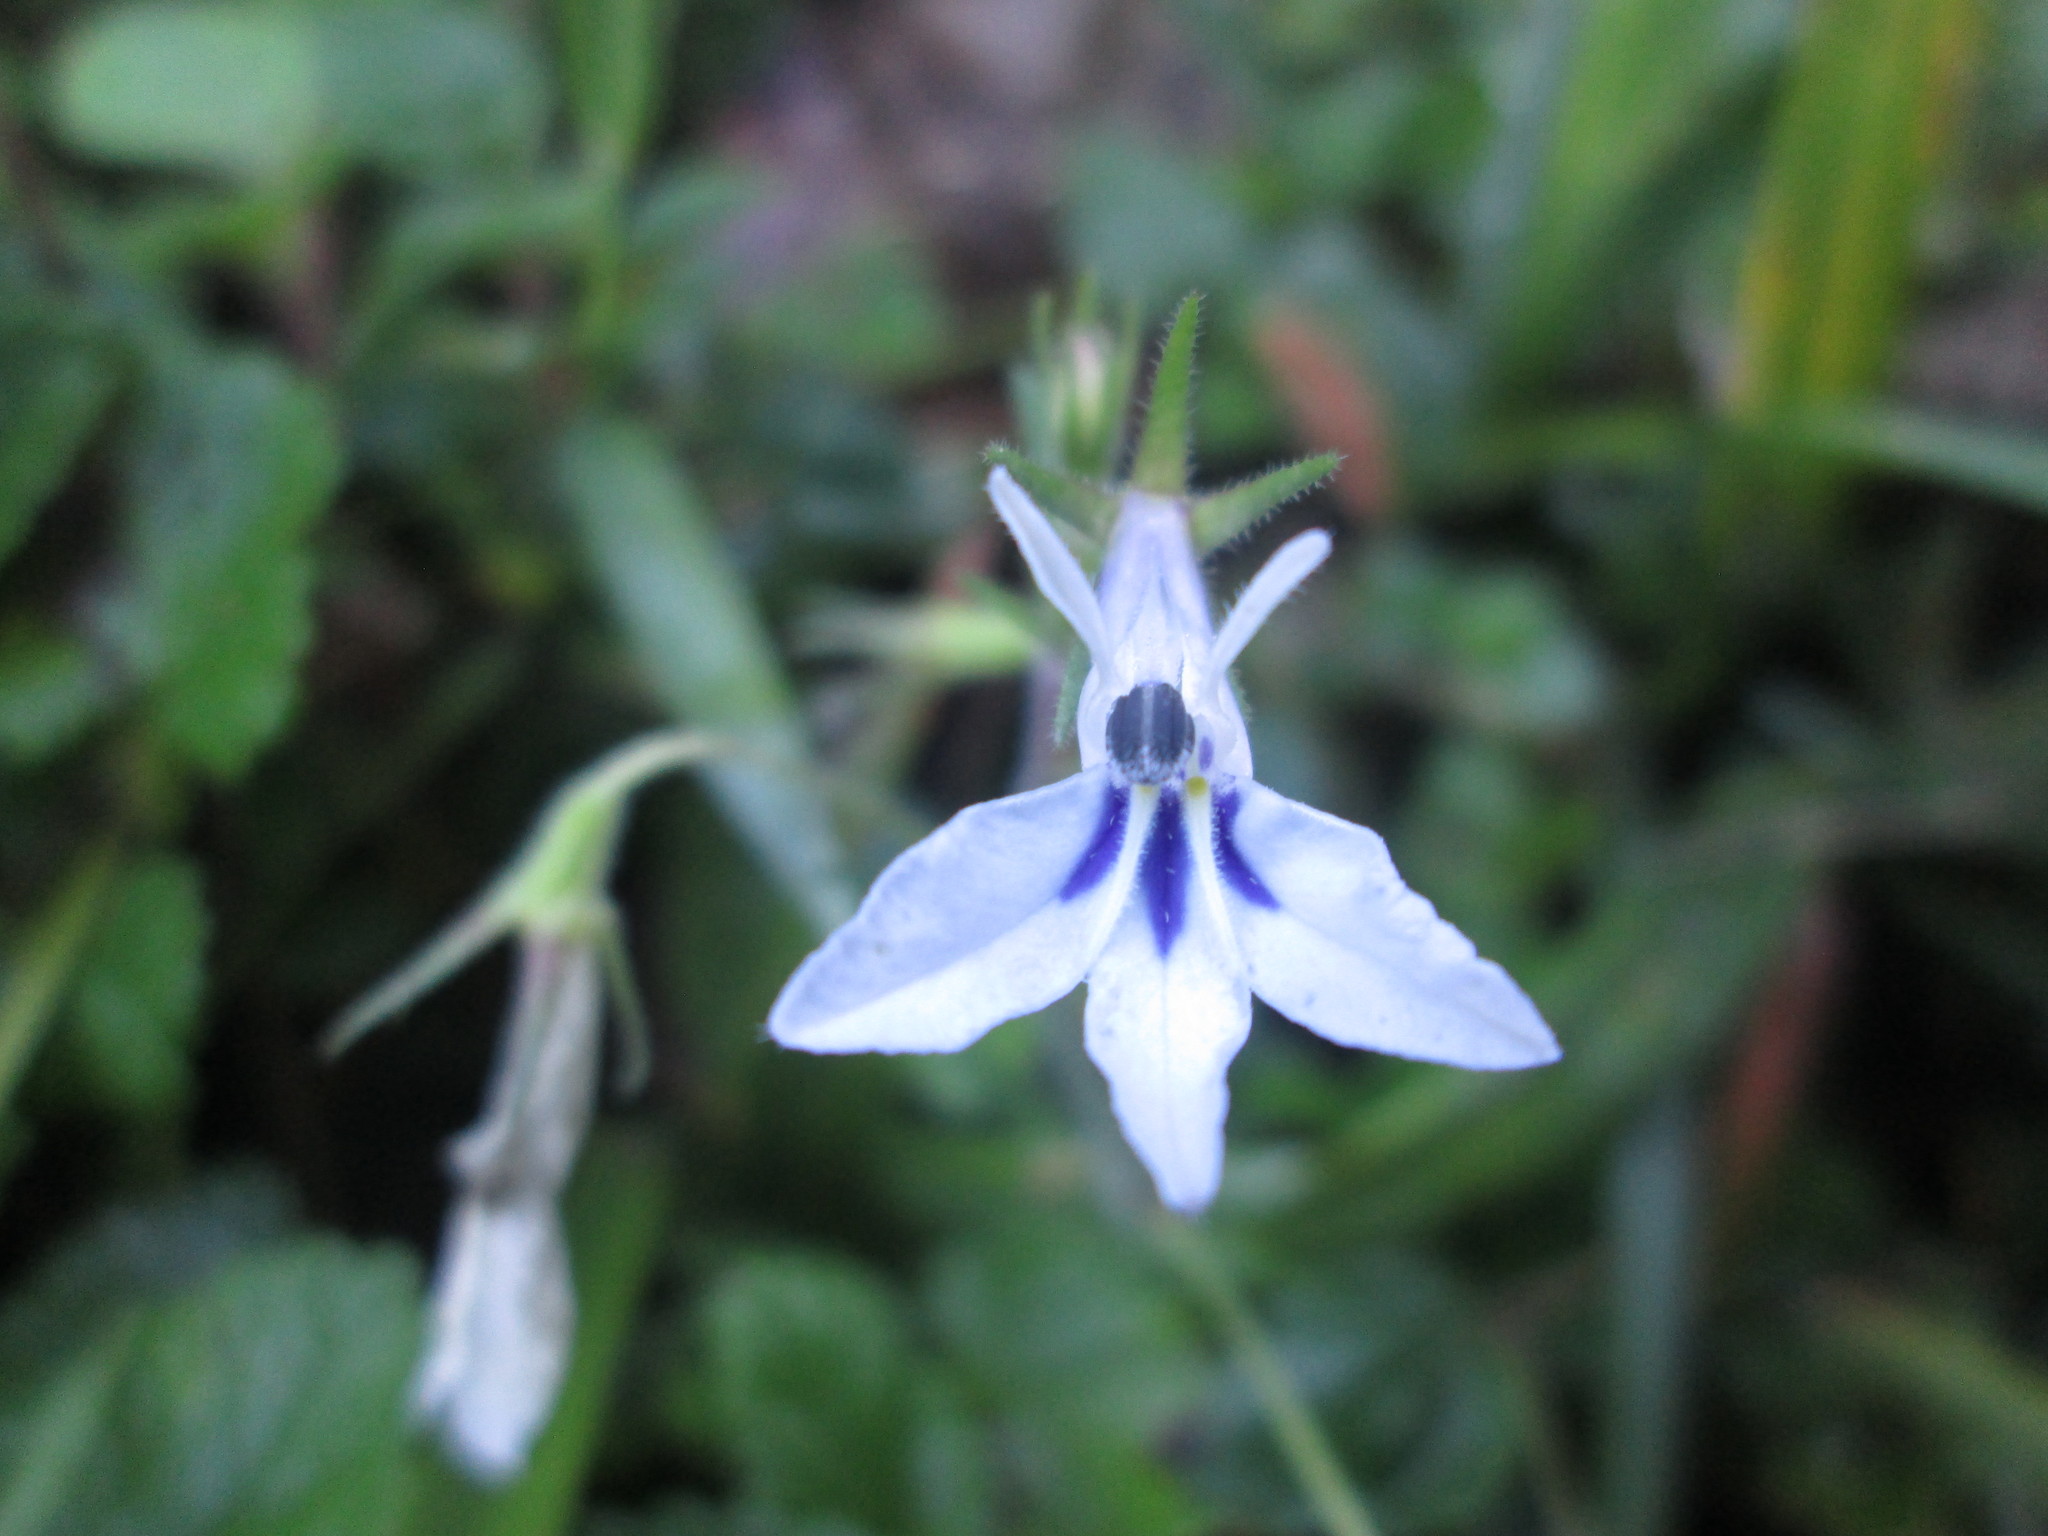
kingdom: Plantae
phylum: Tracheophyta
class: Magnoliopsida
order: Asterales
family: Campanulaceae
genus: Lobelia
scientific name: Lobelia cuneifolia
